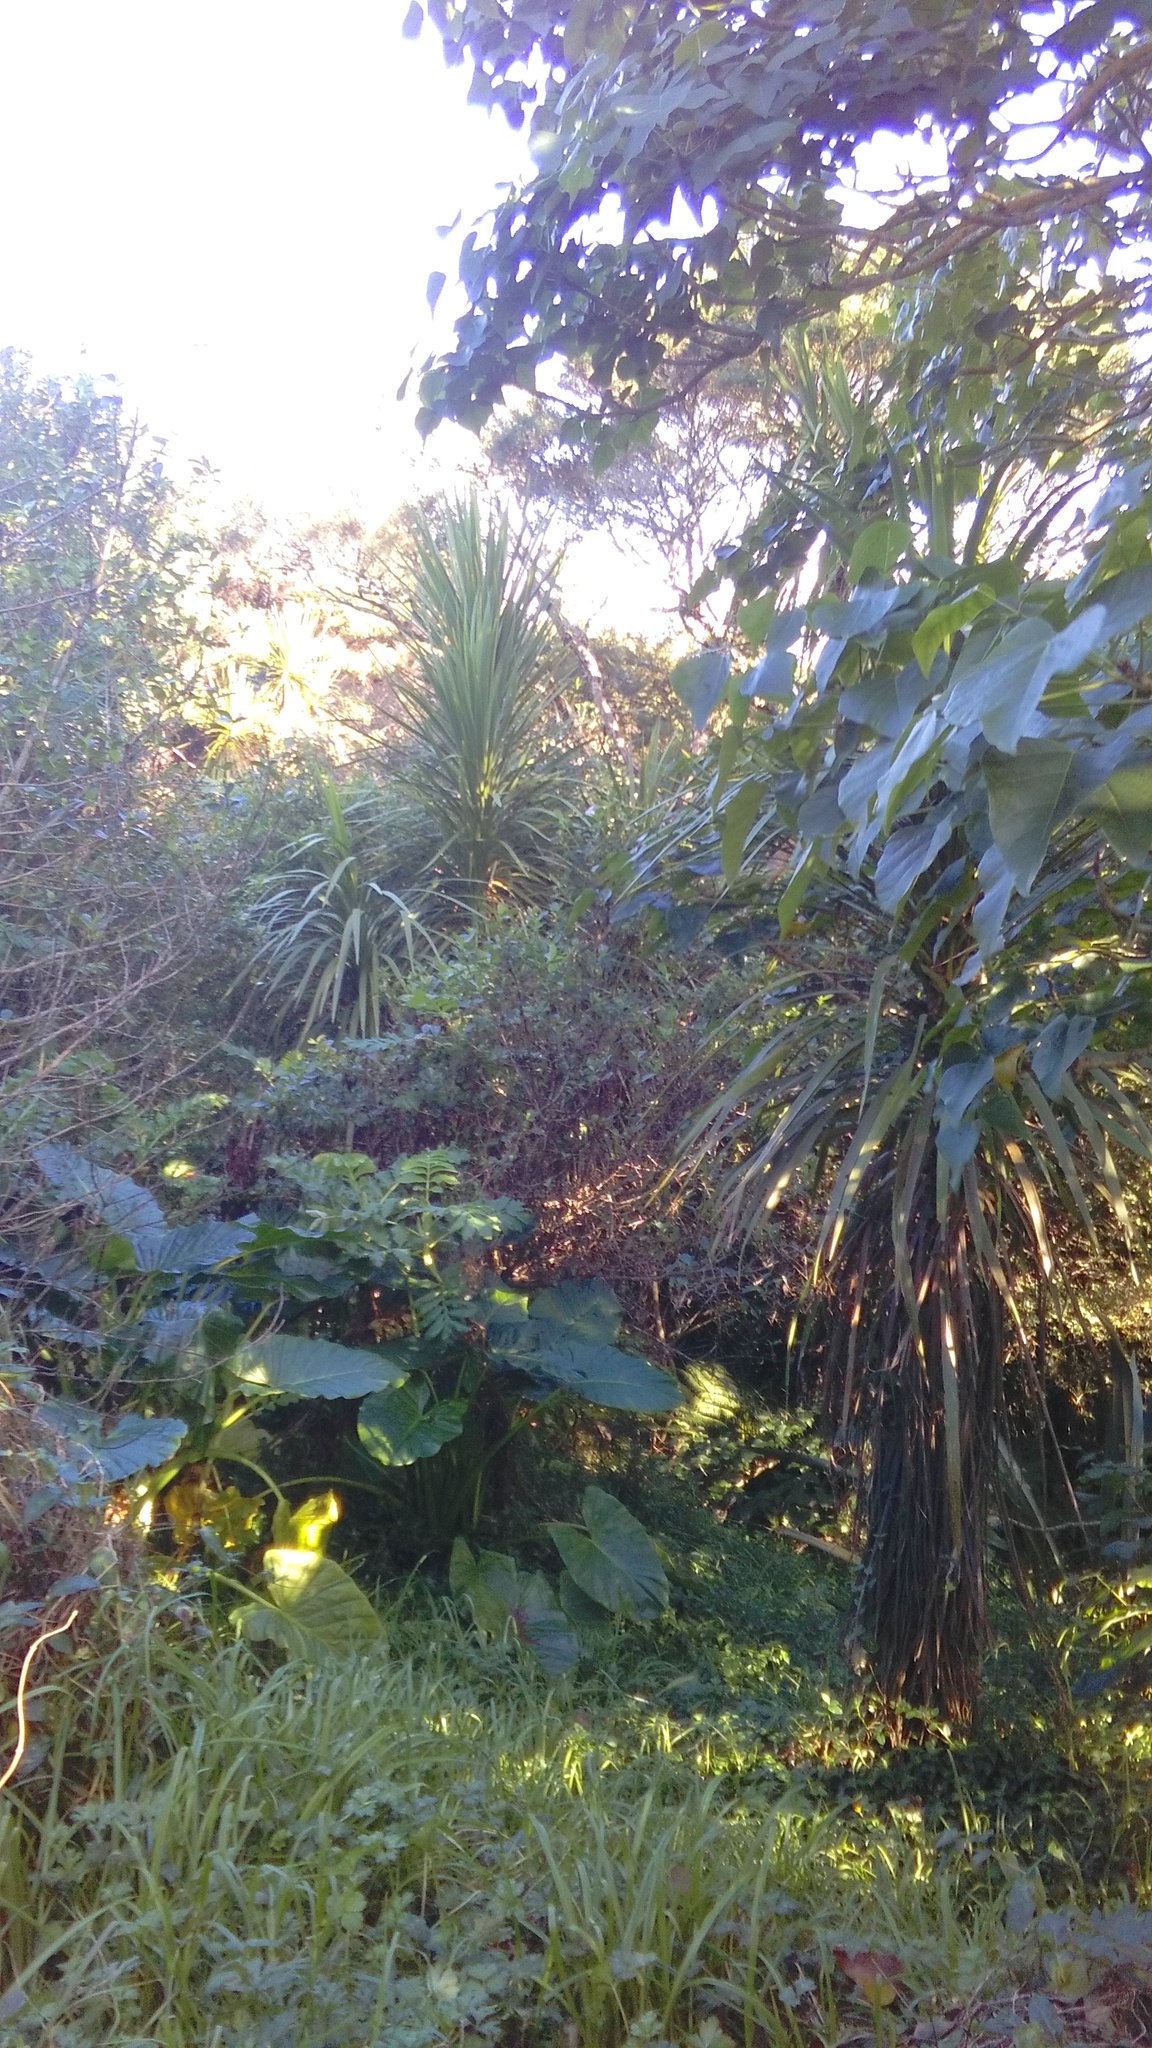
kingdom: Plantae
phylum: Tracheophyta
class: Liliopsida
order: Asparagales
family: Asparagaceae
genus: Cordyline
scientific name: Cordyline australis
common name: Cabbage-palm
